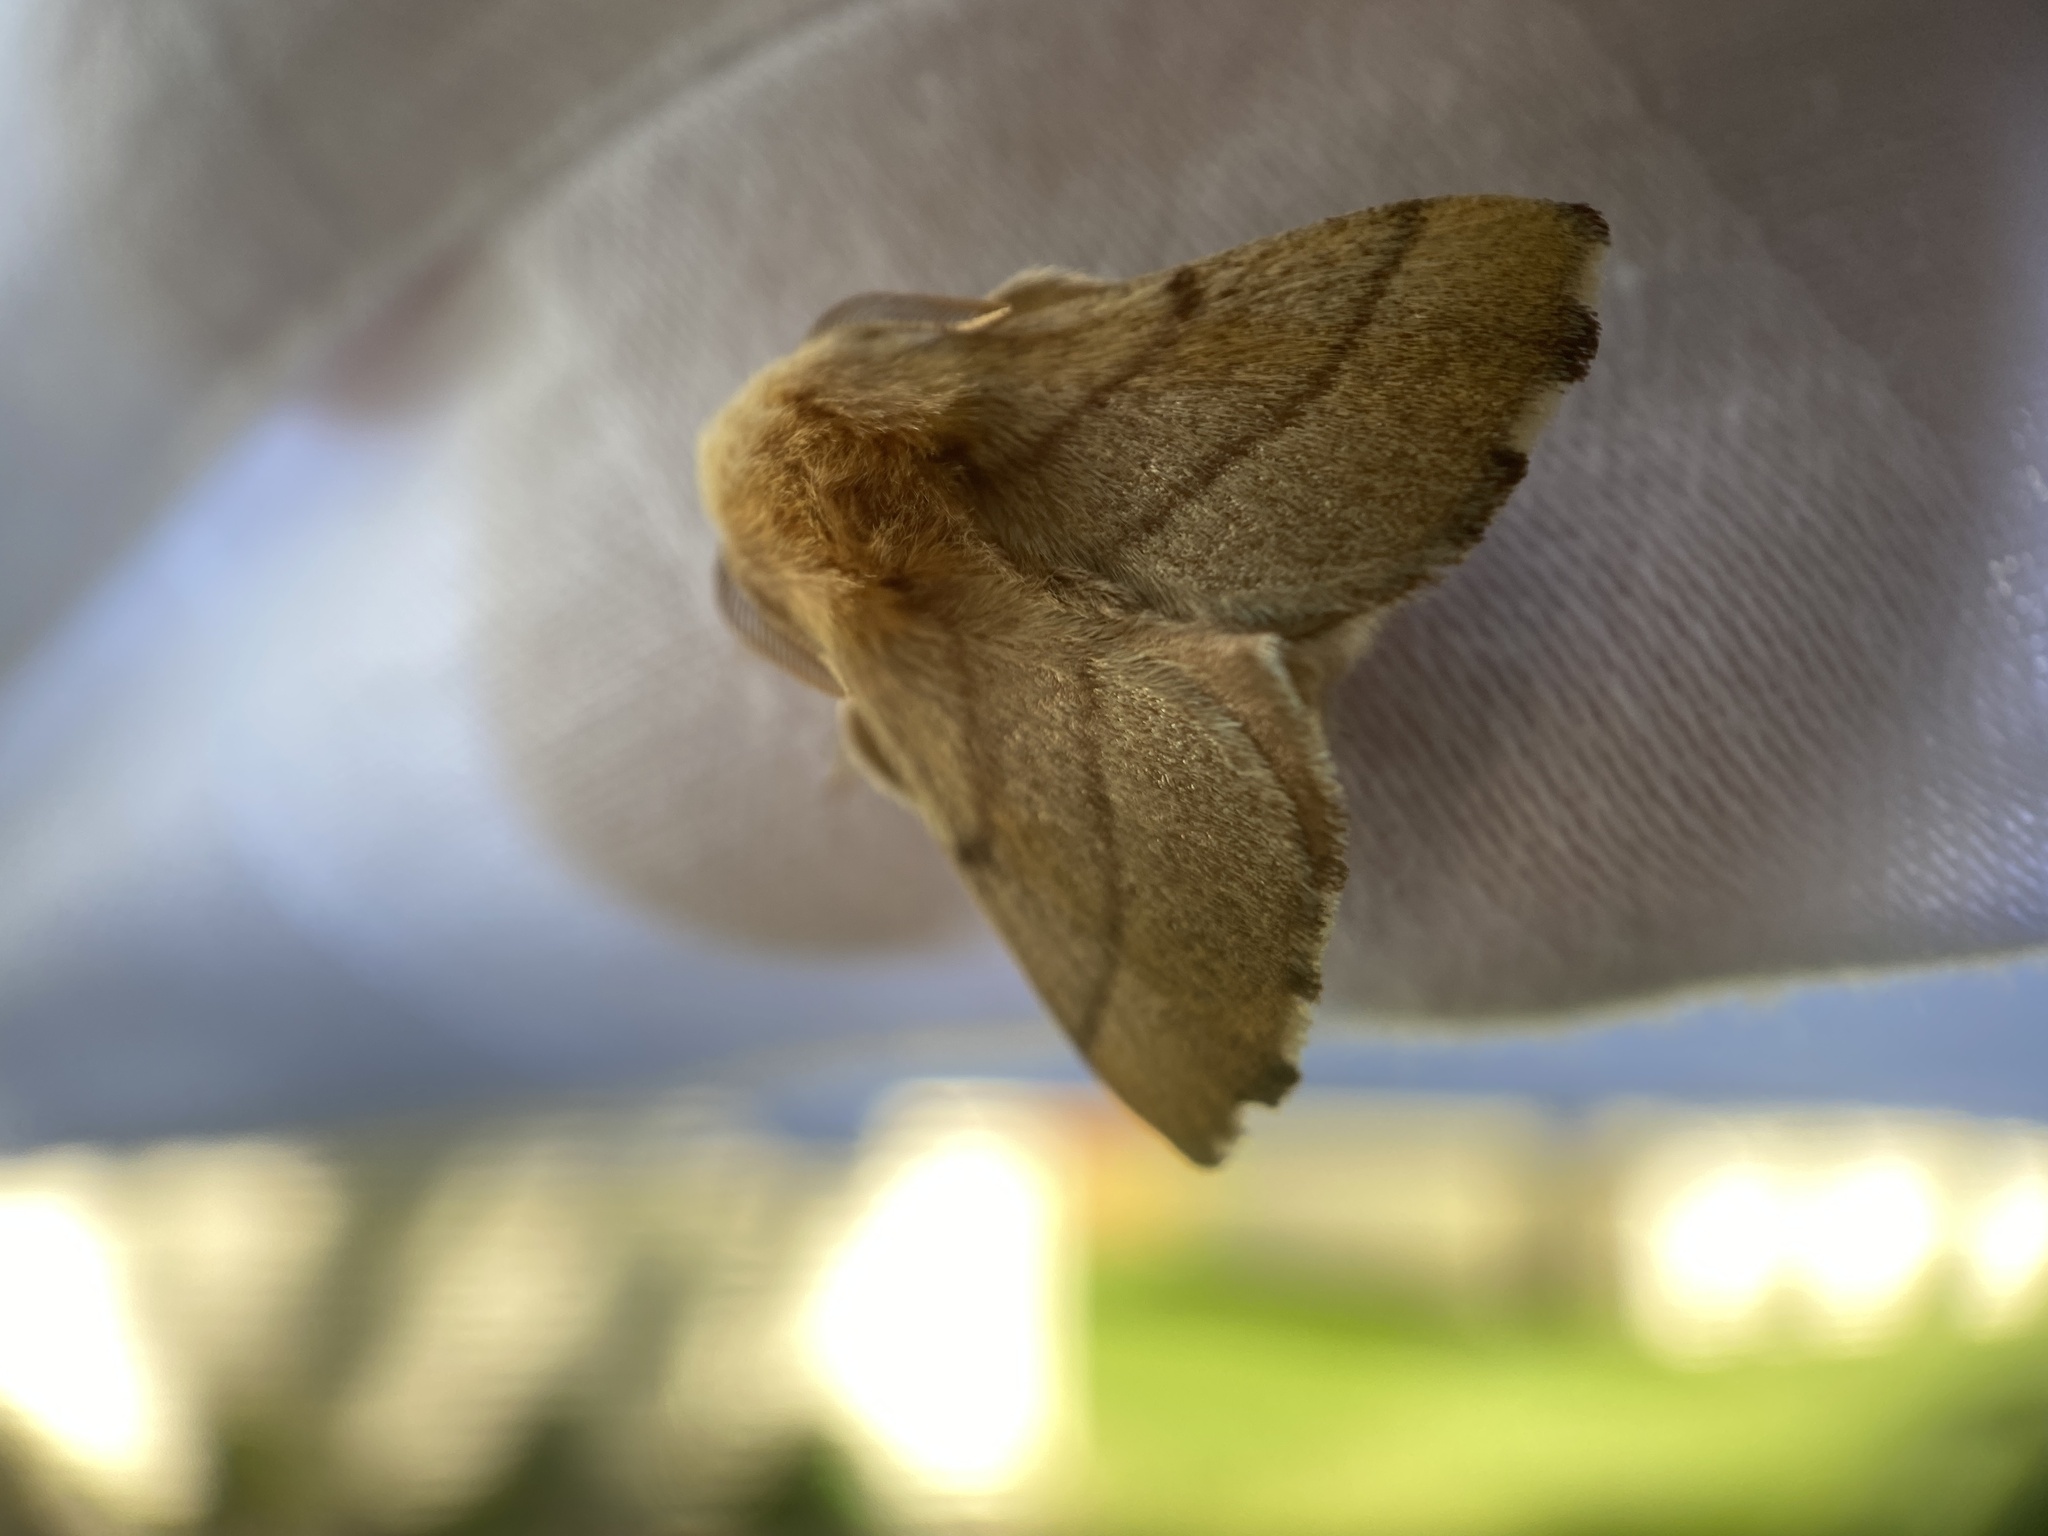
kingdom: Animalia
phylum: Arthropoda
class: Insecta
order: Lepidoptera
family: Lasiocampidae
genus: Malacosoma
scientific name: Malacosoma disstria
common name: Forest tent caterpillar
